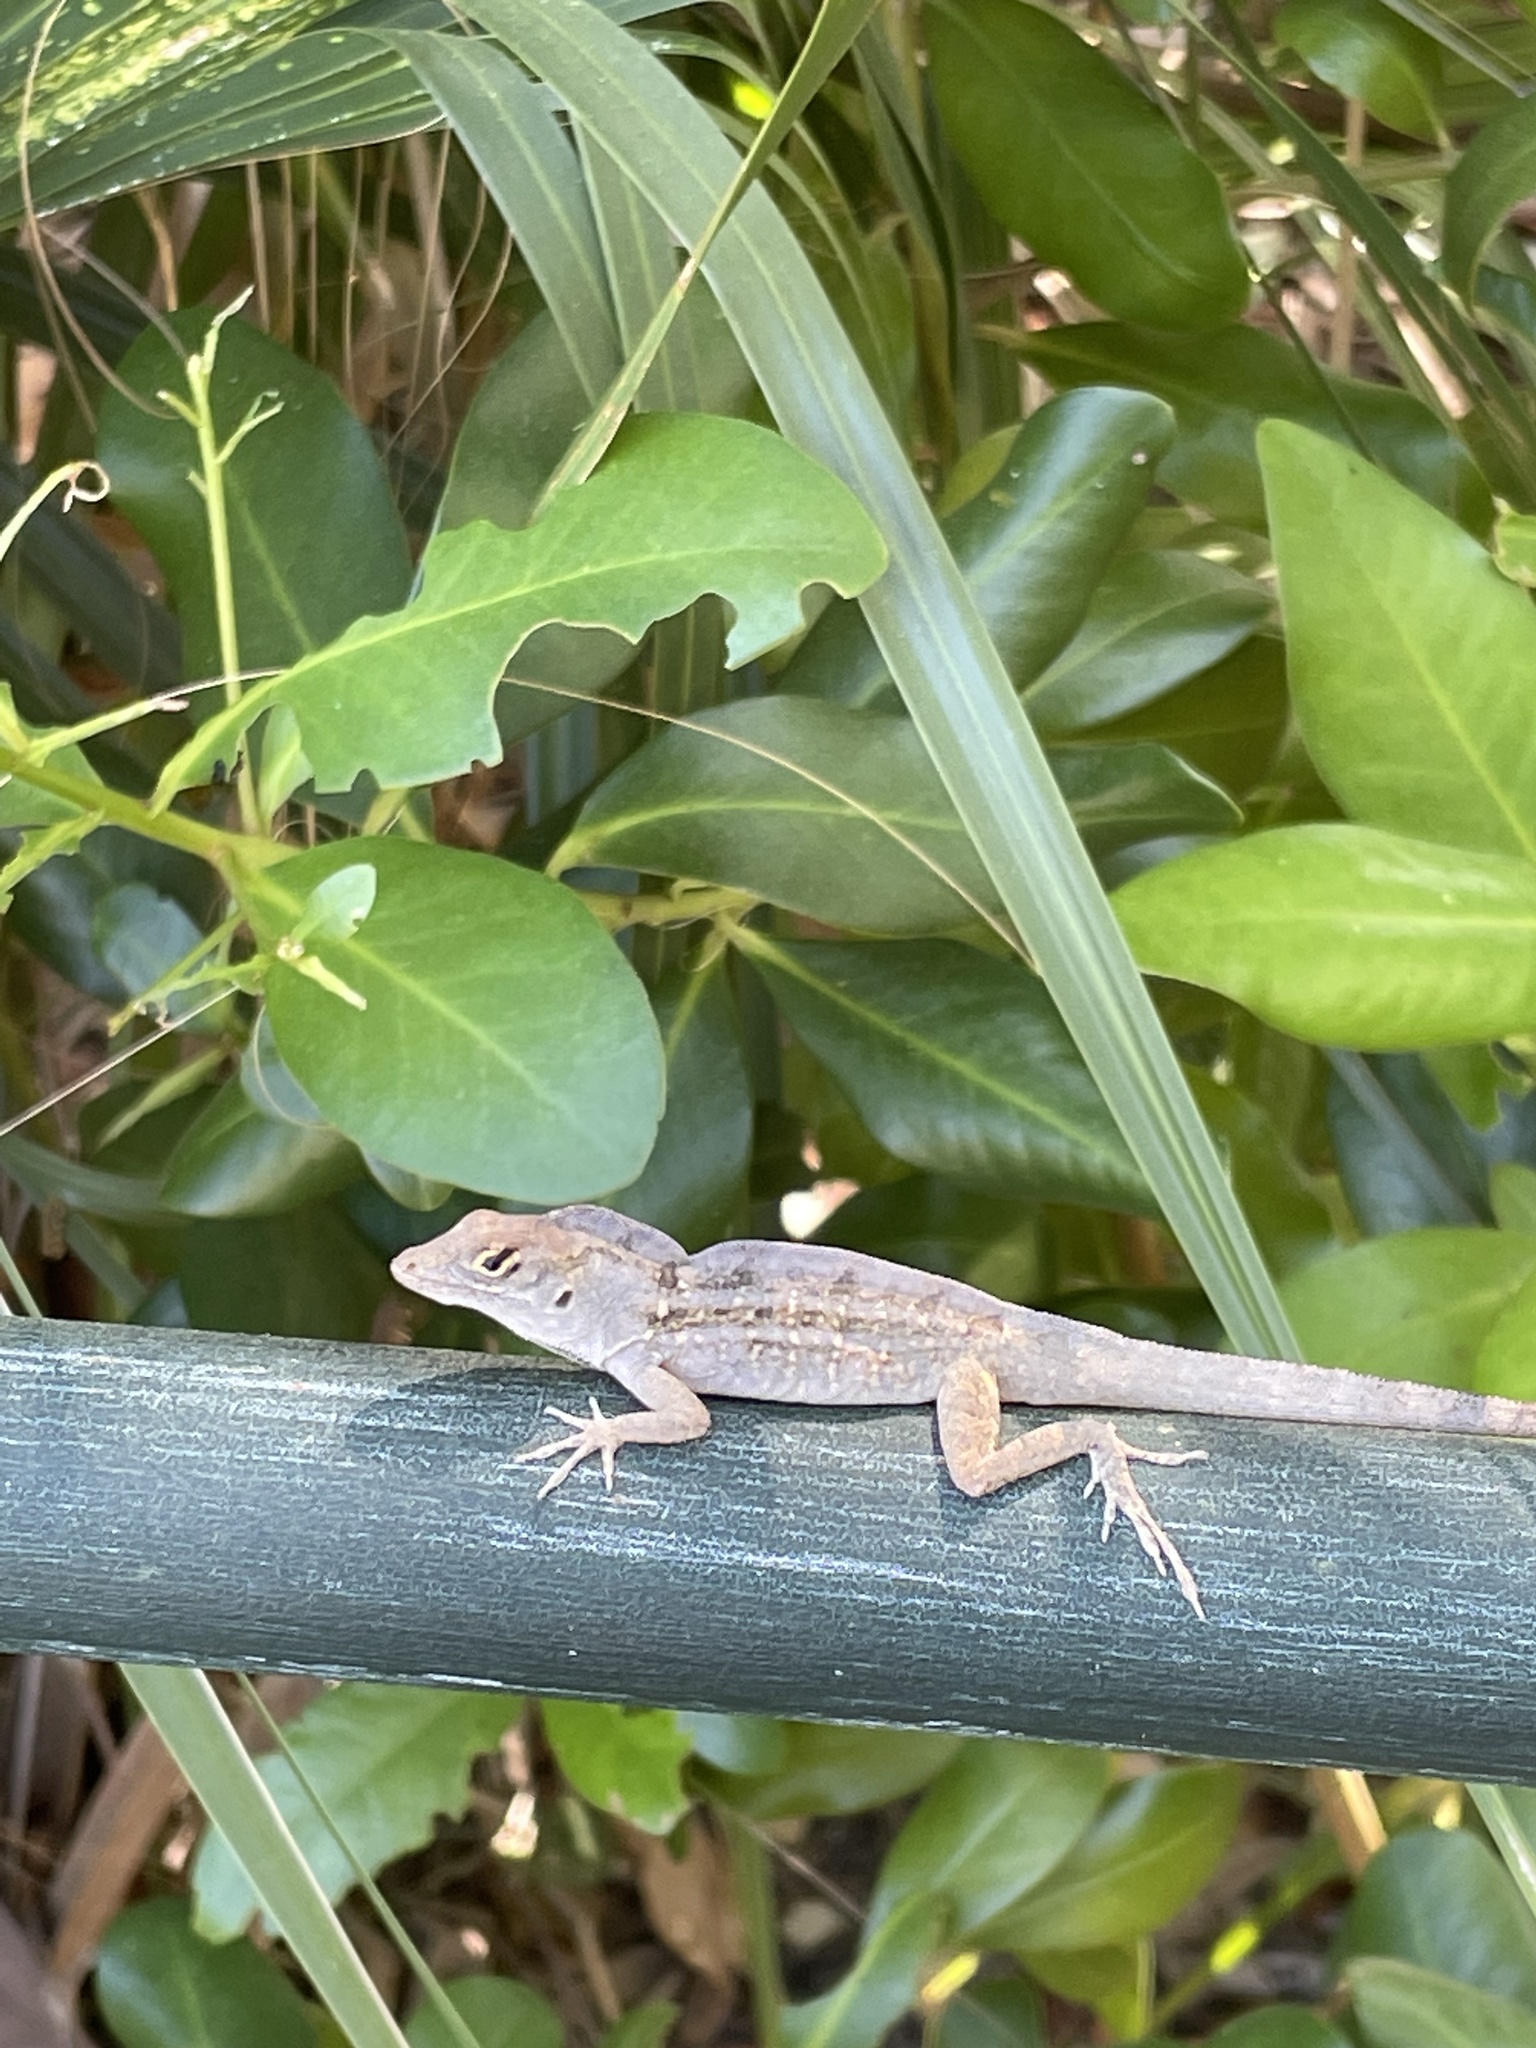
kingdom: Animalia
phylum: Chordata
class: Squamata
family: Dactyloidae
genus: Anolis
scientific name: Anolis sagrei
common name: Brown anole
